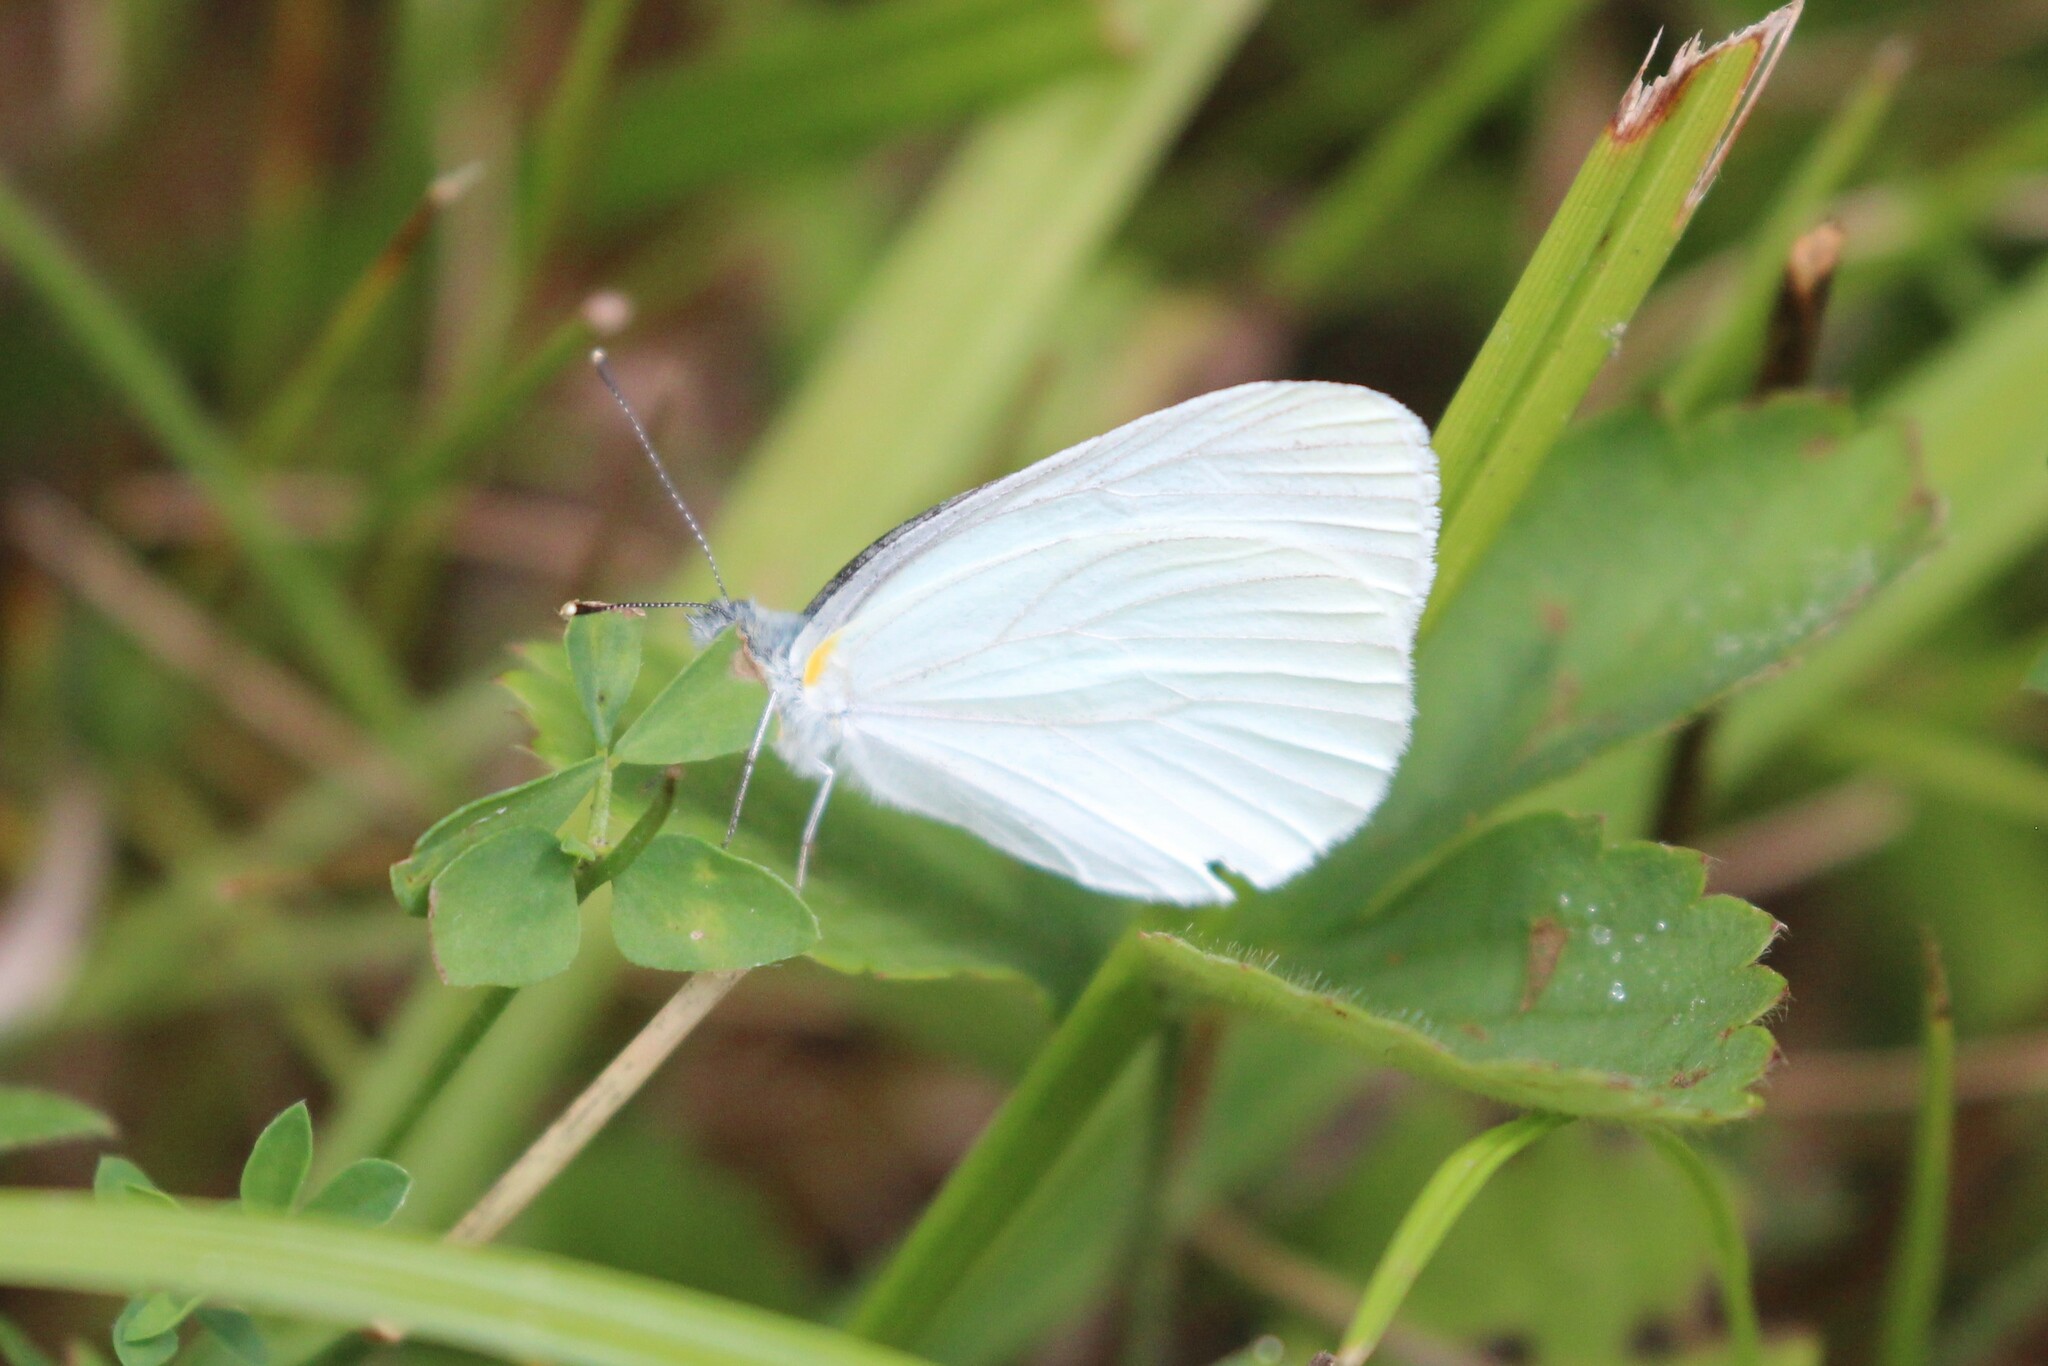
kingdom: Animalia
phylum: Arthropoda
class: Insecta
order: Lepidoptera
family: Pieridae
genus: Pieris
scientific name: Pieris oleracea
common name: Mustard white
